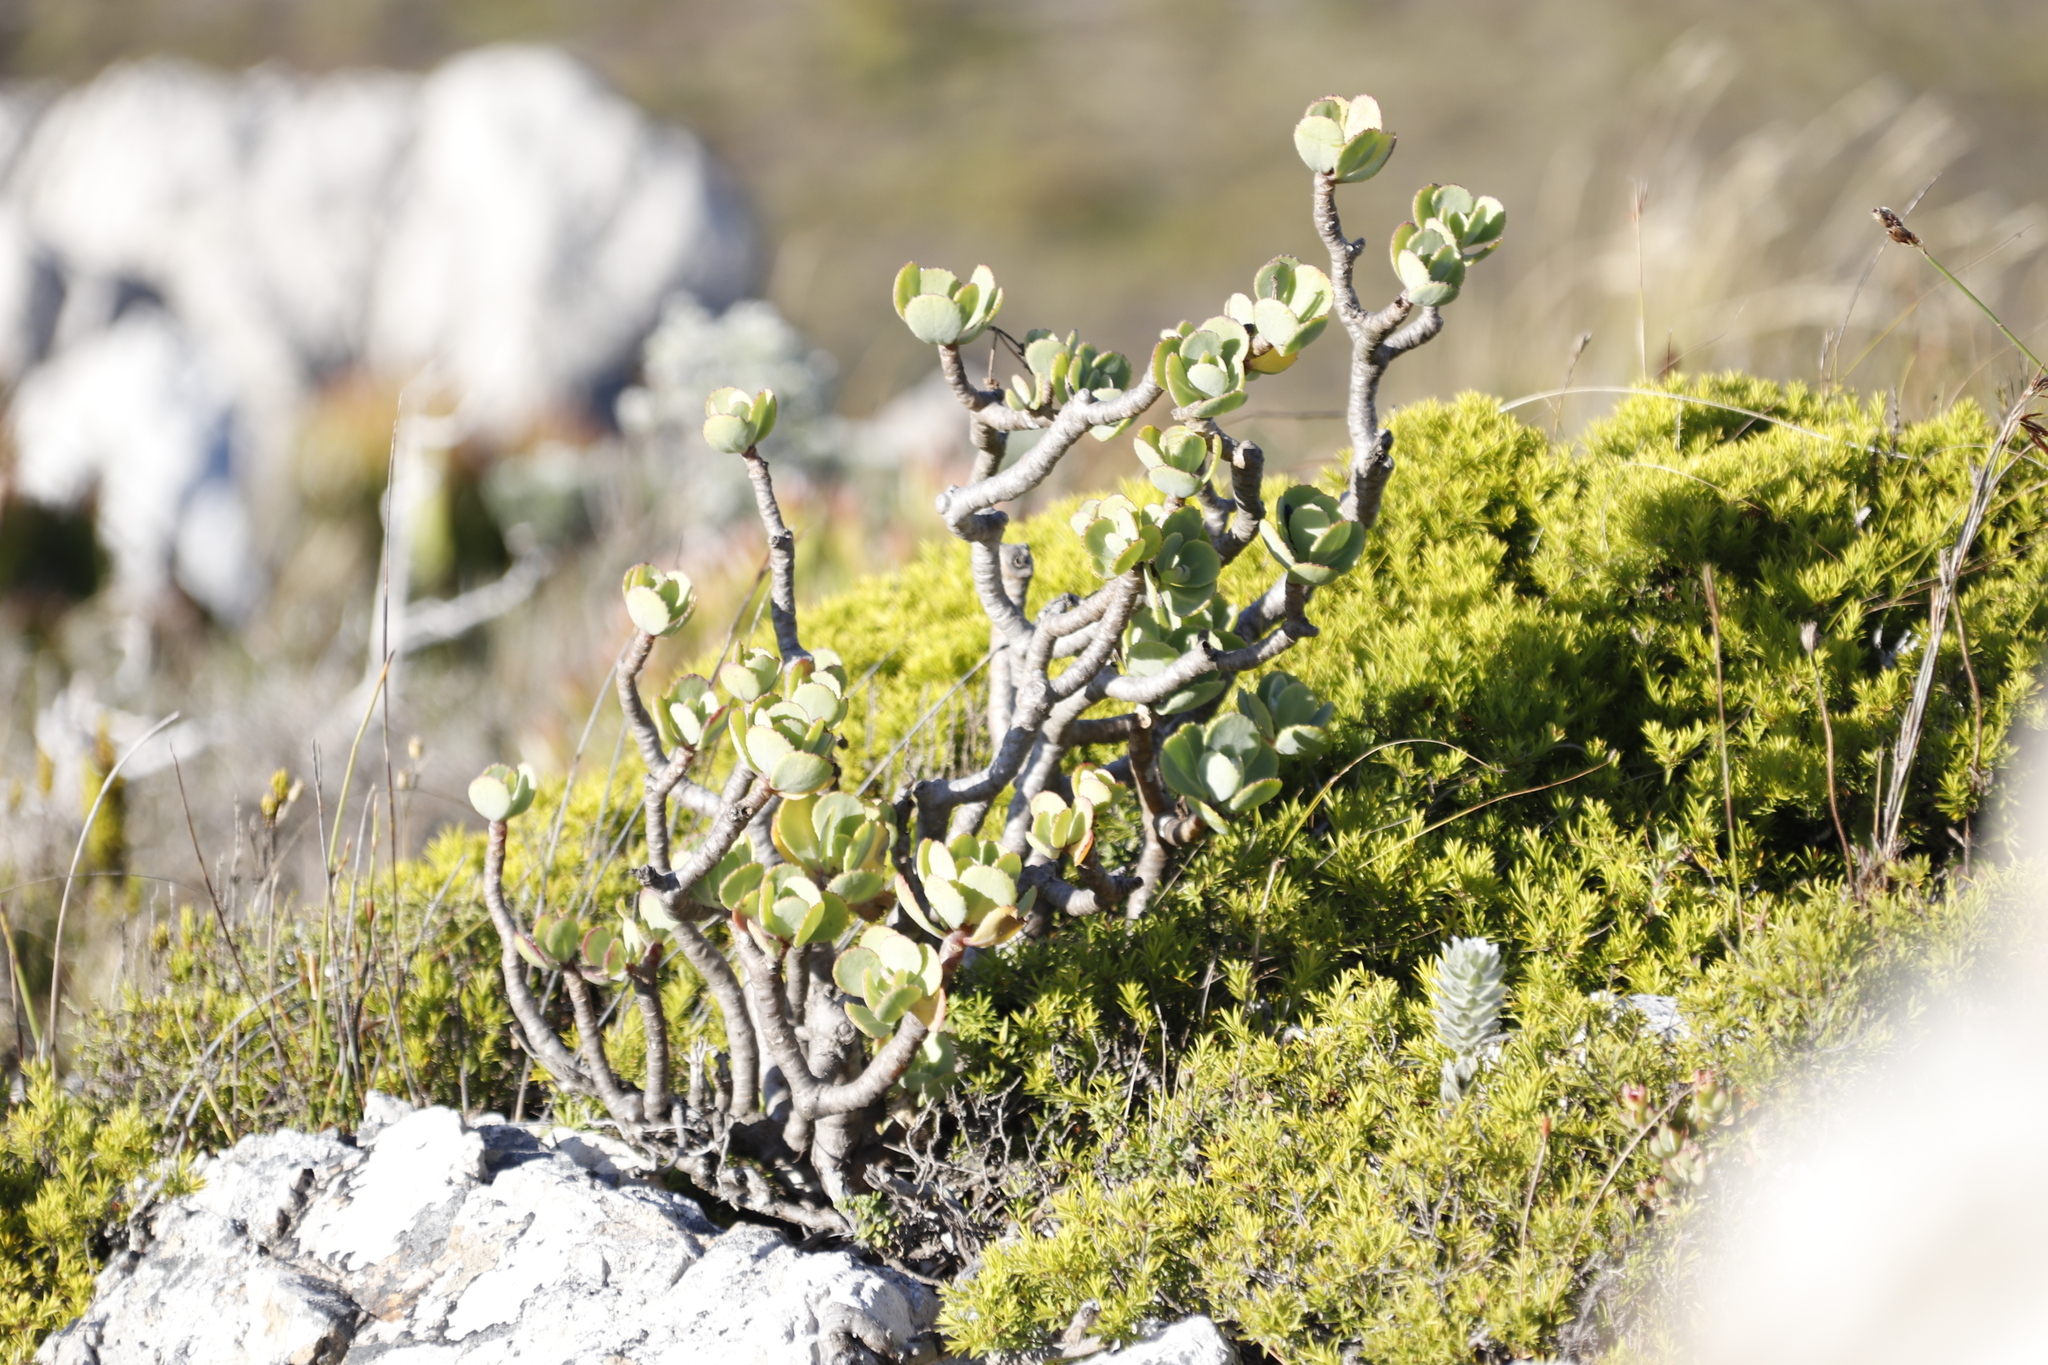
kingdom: Plantae
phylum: Tracheophyta
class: Magnoliopsida
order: Asterales
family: Asteraceae
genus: Othonna
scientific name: Othonna dentata
